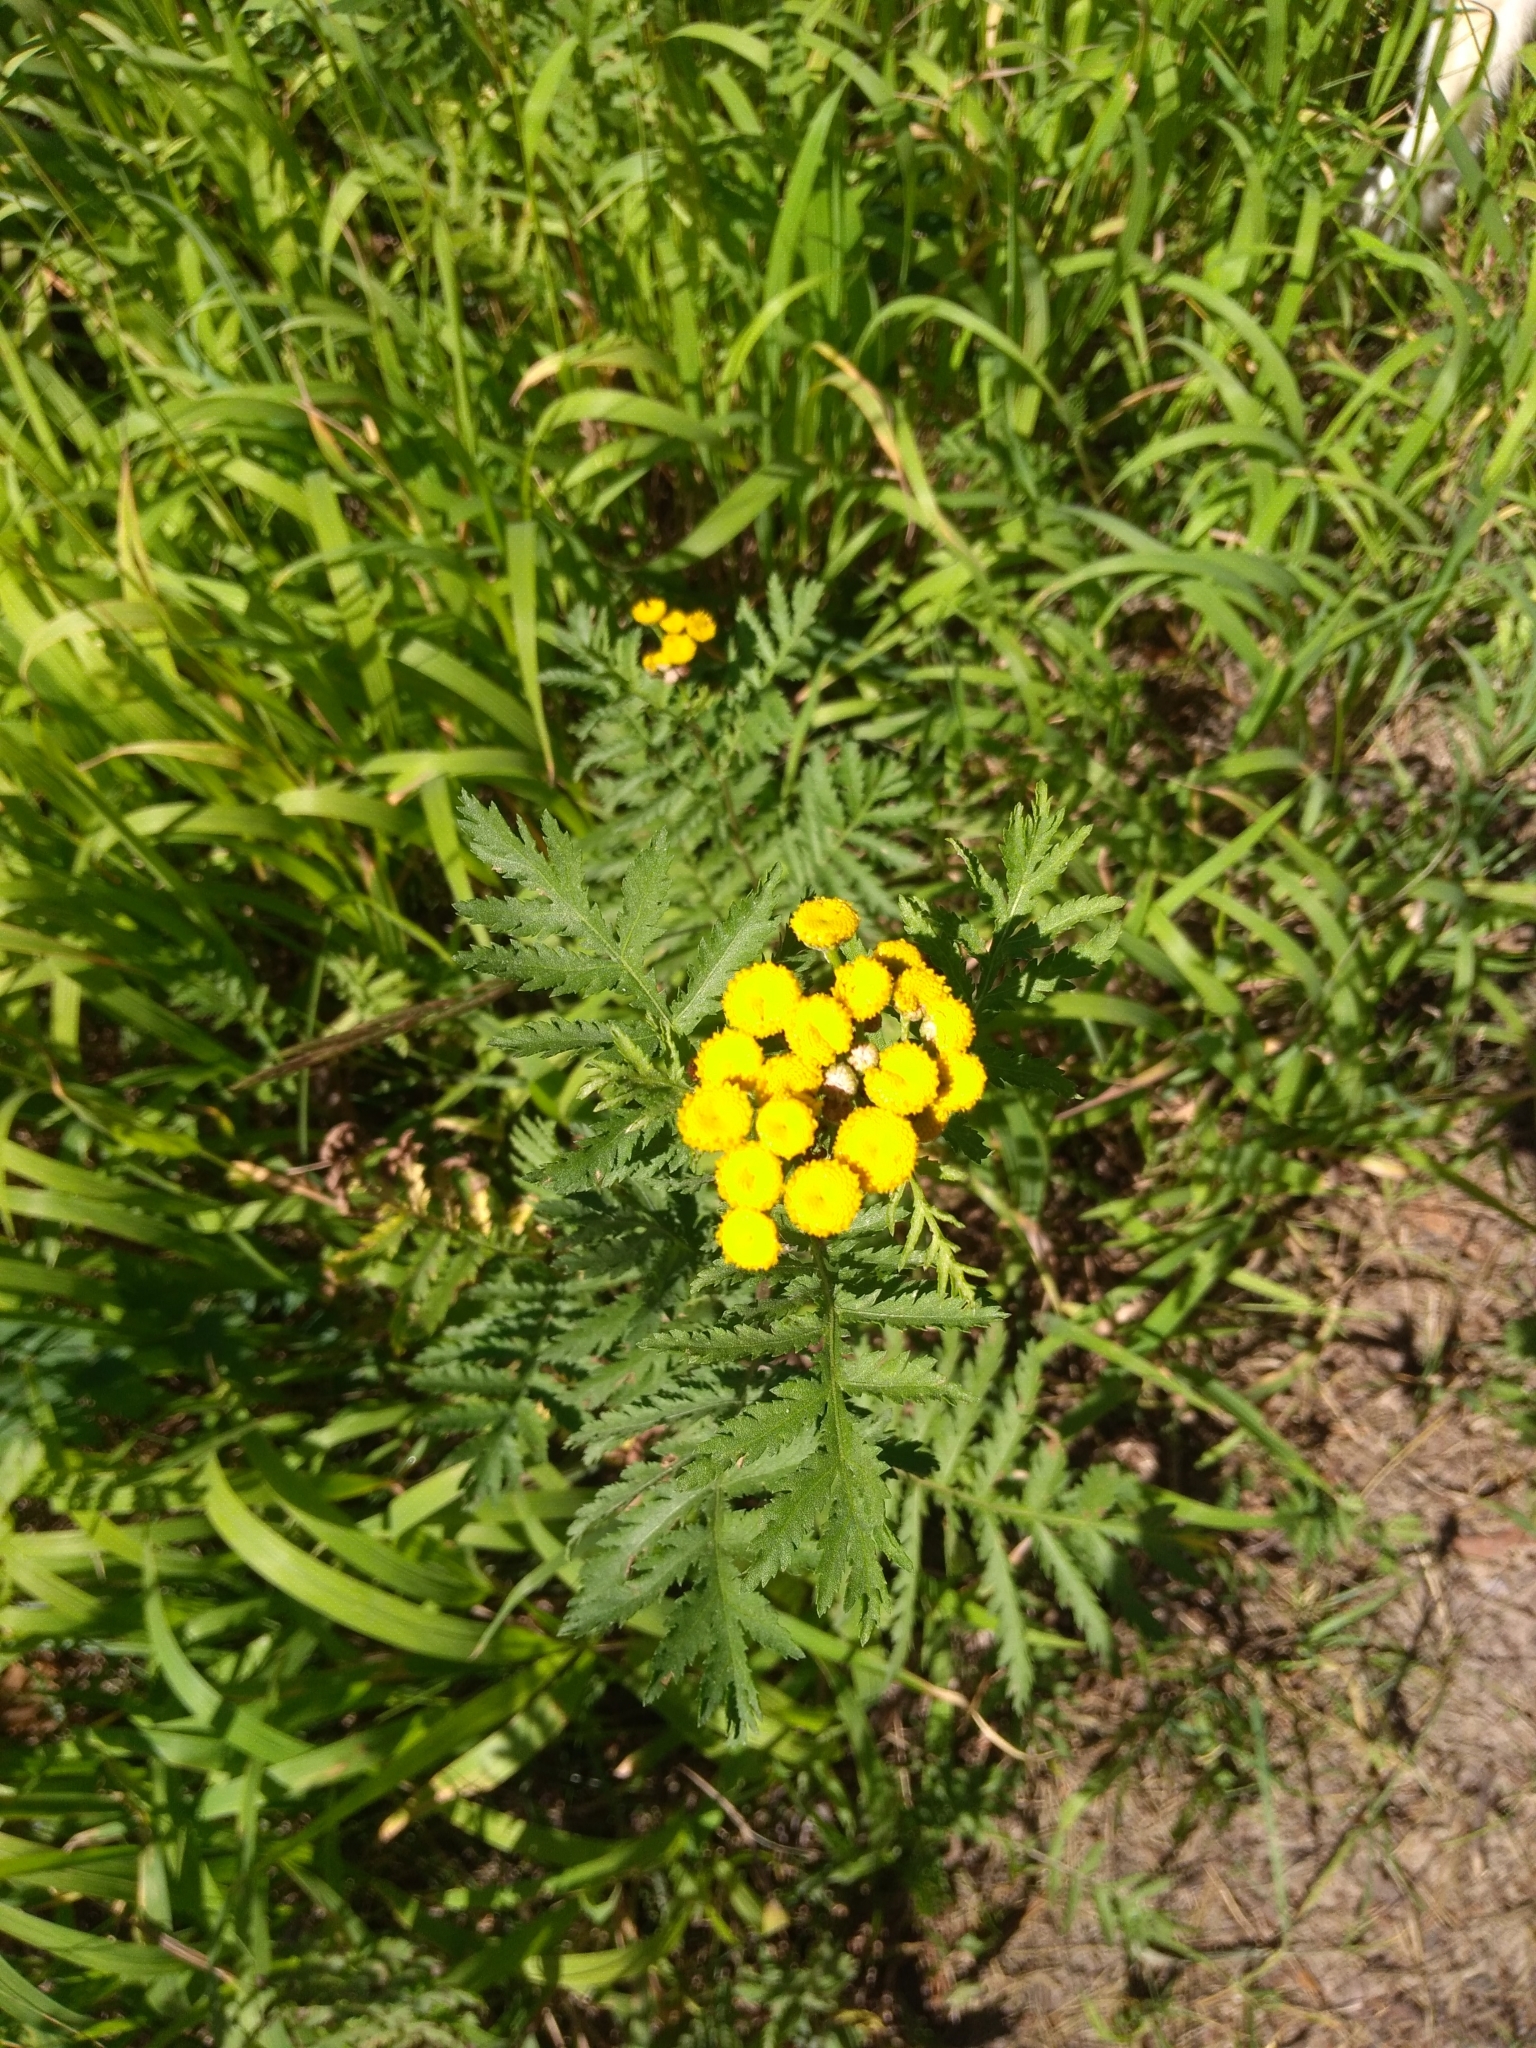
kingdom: Plantae
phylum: Tracheophyta
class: Magnoliopsida
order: Asterales
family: Asteraceae
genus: Tanacetum
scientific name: Tanacetum vulgare
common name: Common tansy
